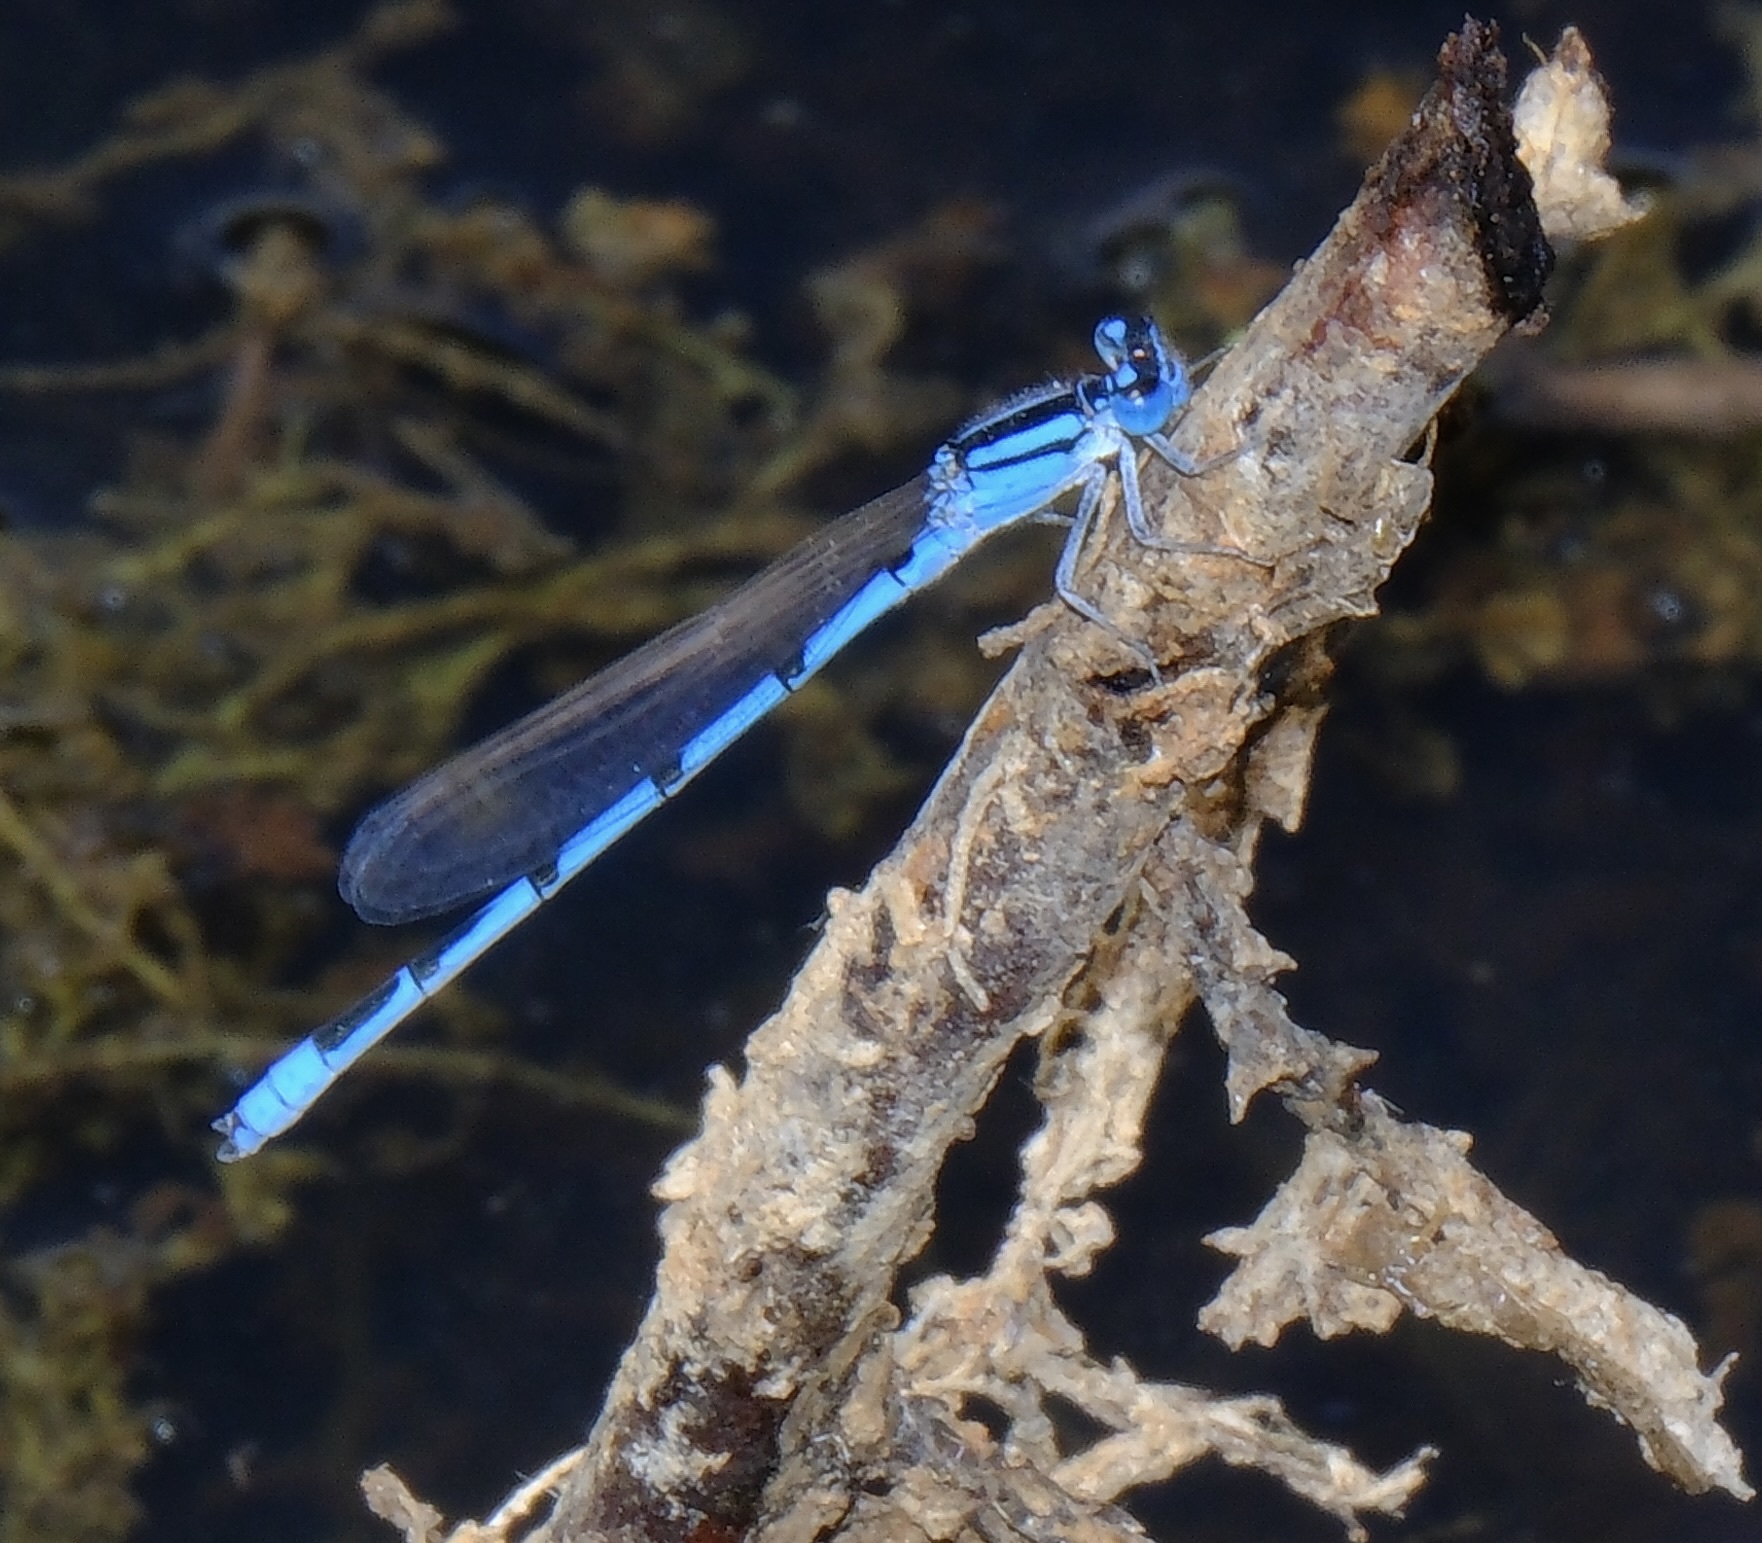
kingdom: Animalia
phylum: Arthropoda
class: Insecta
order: Odonata
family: Coenagrionidae
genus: Enallagma
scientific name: Enallagma civile
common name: Damselfly
